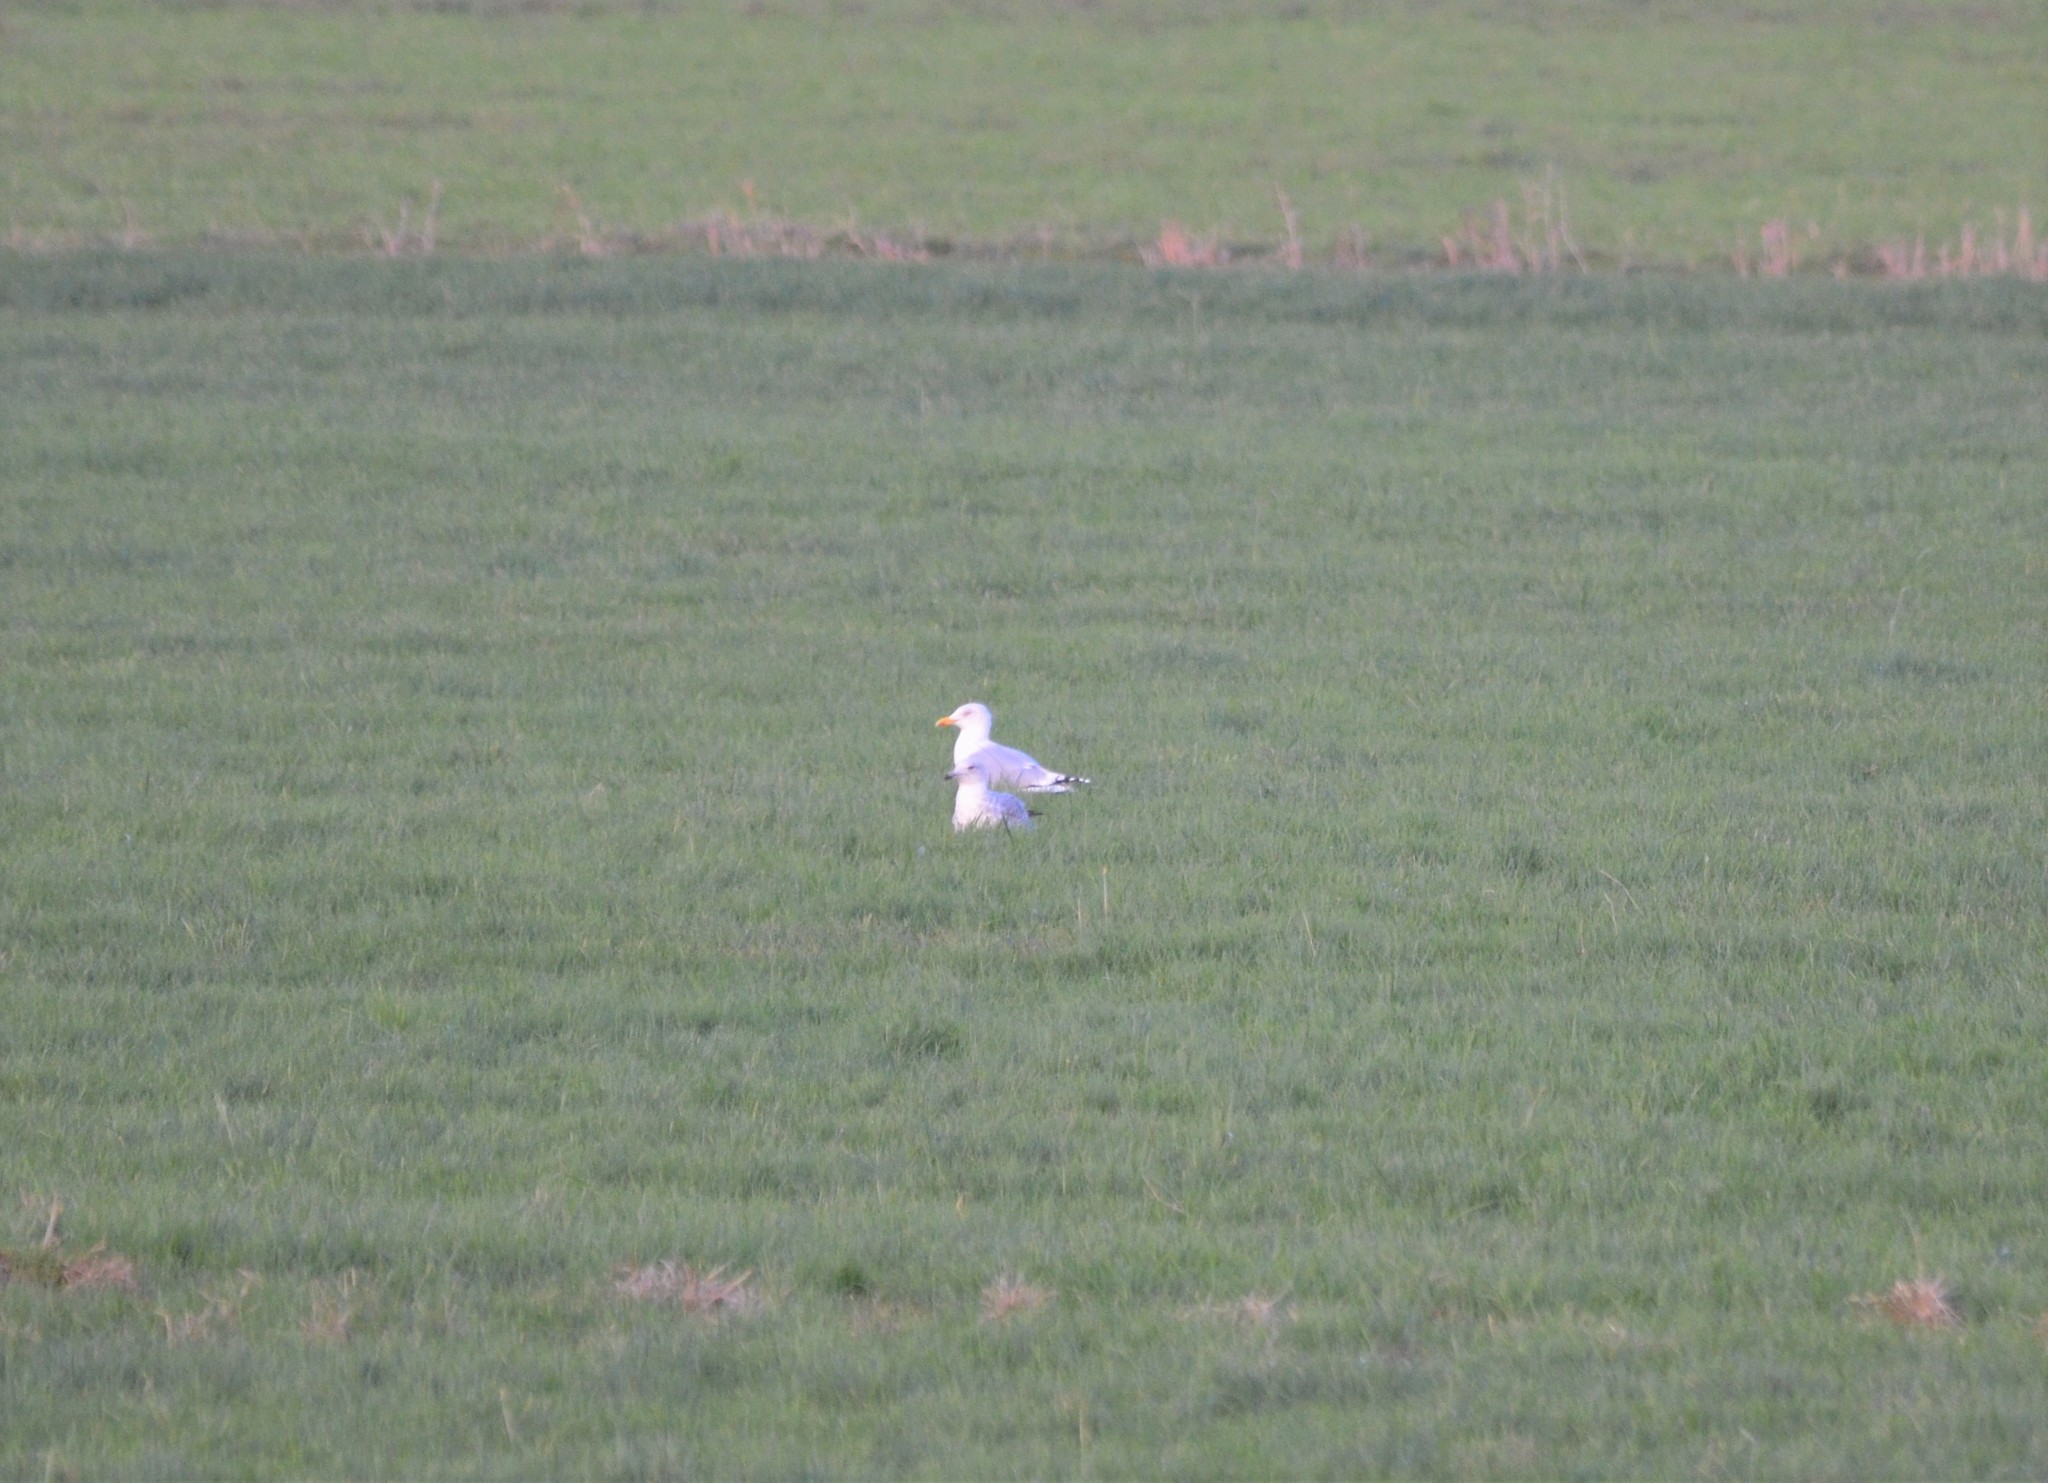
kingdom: Animalia
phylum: Chordata
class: Aves
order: Charadriiformes
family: Laridae
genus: Larus
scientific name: Larus argentatus
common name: Herring gull
